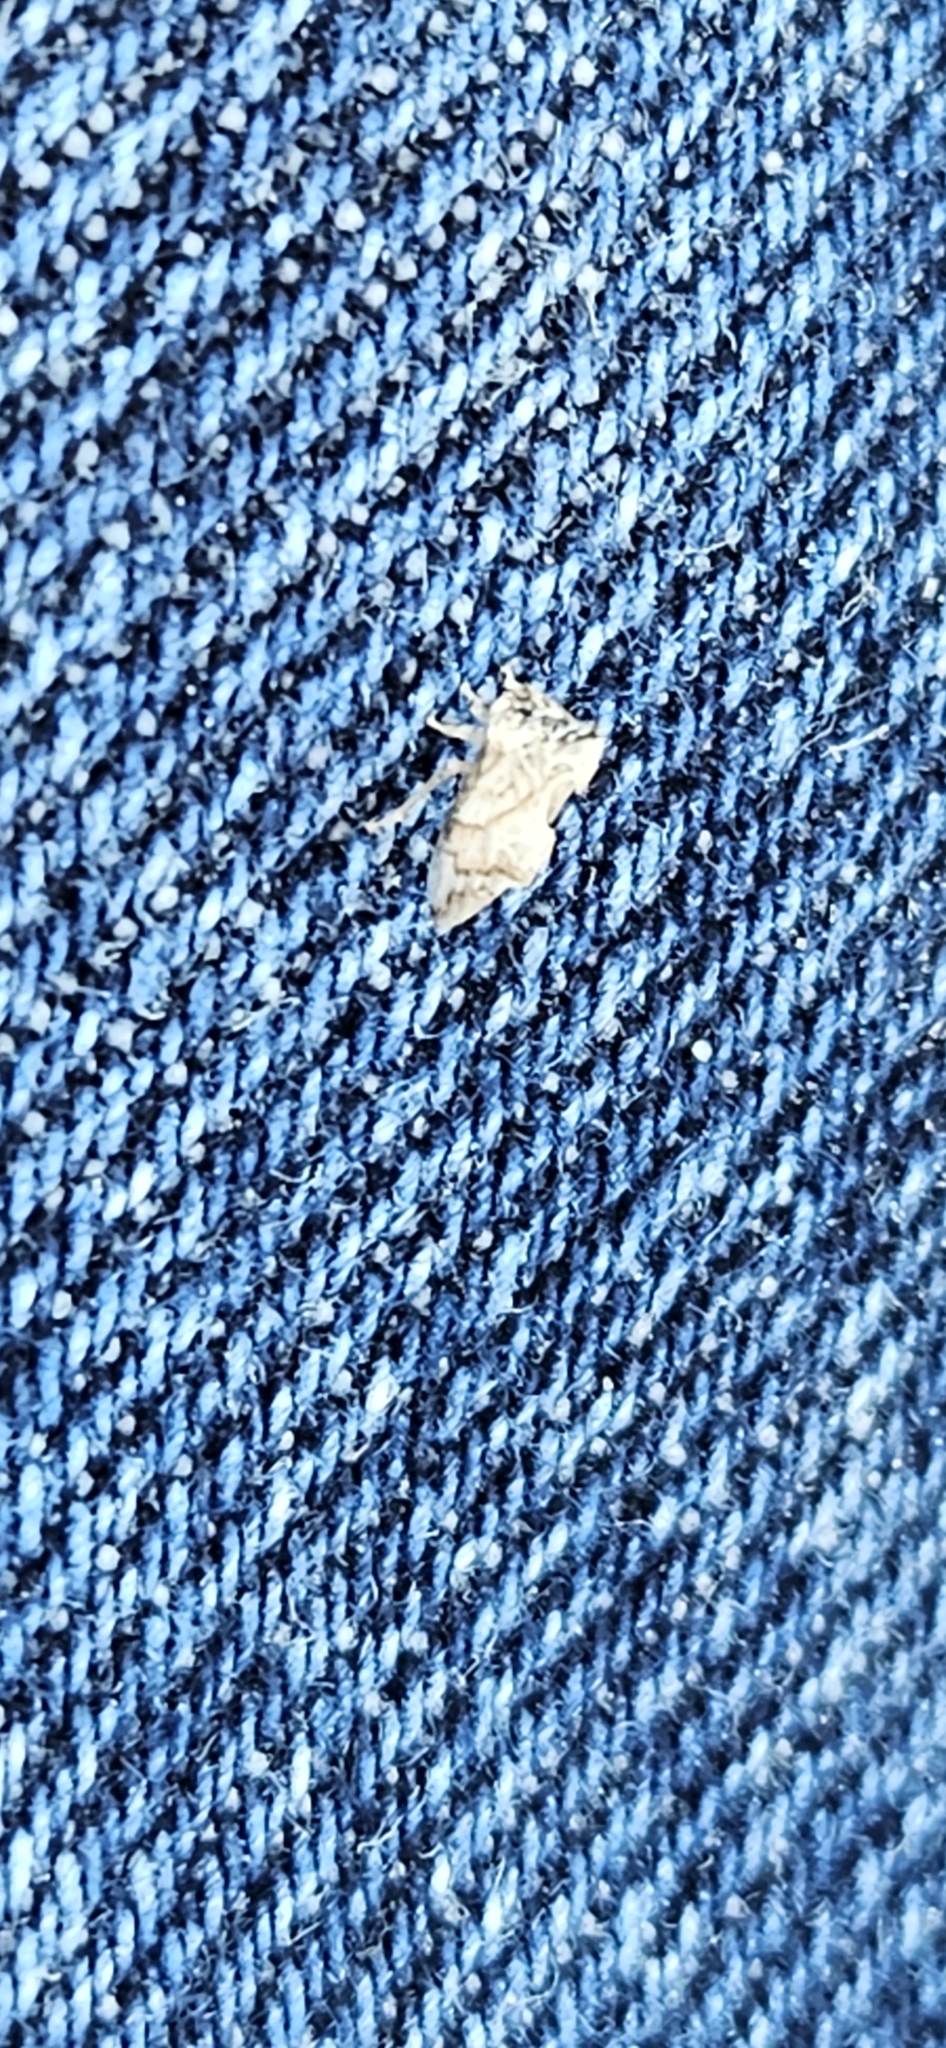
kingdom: Animalia
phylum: Arthropoda
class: Insecta
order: Hemiptera
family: Membracidae
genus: Entylia
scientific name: Entylia carinata
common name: Keeled treehopper
